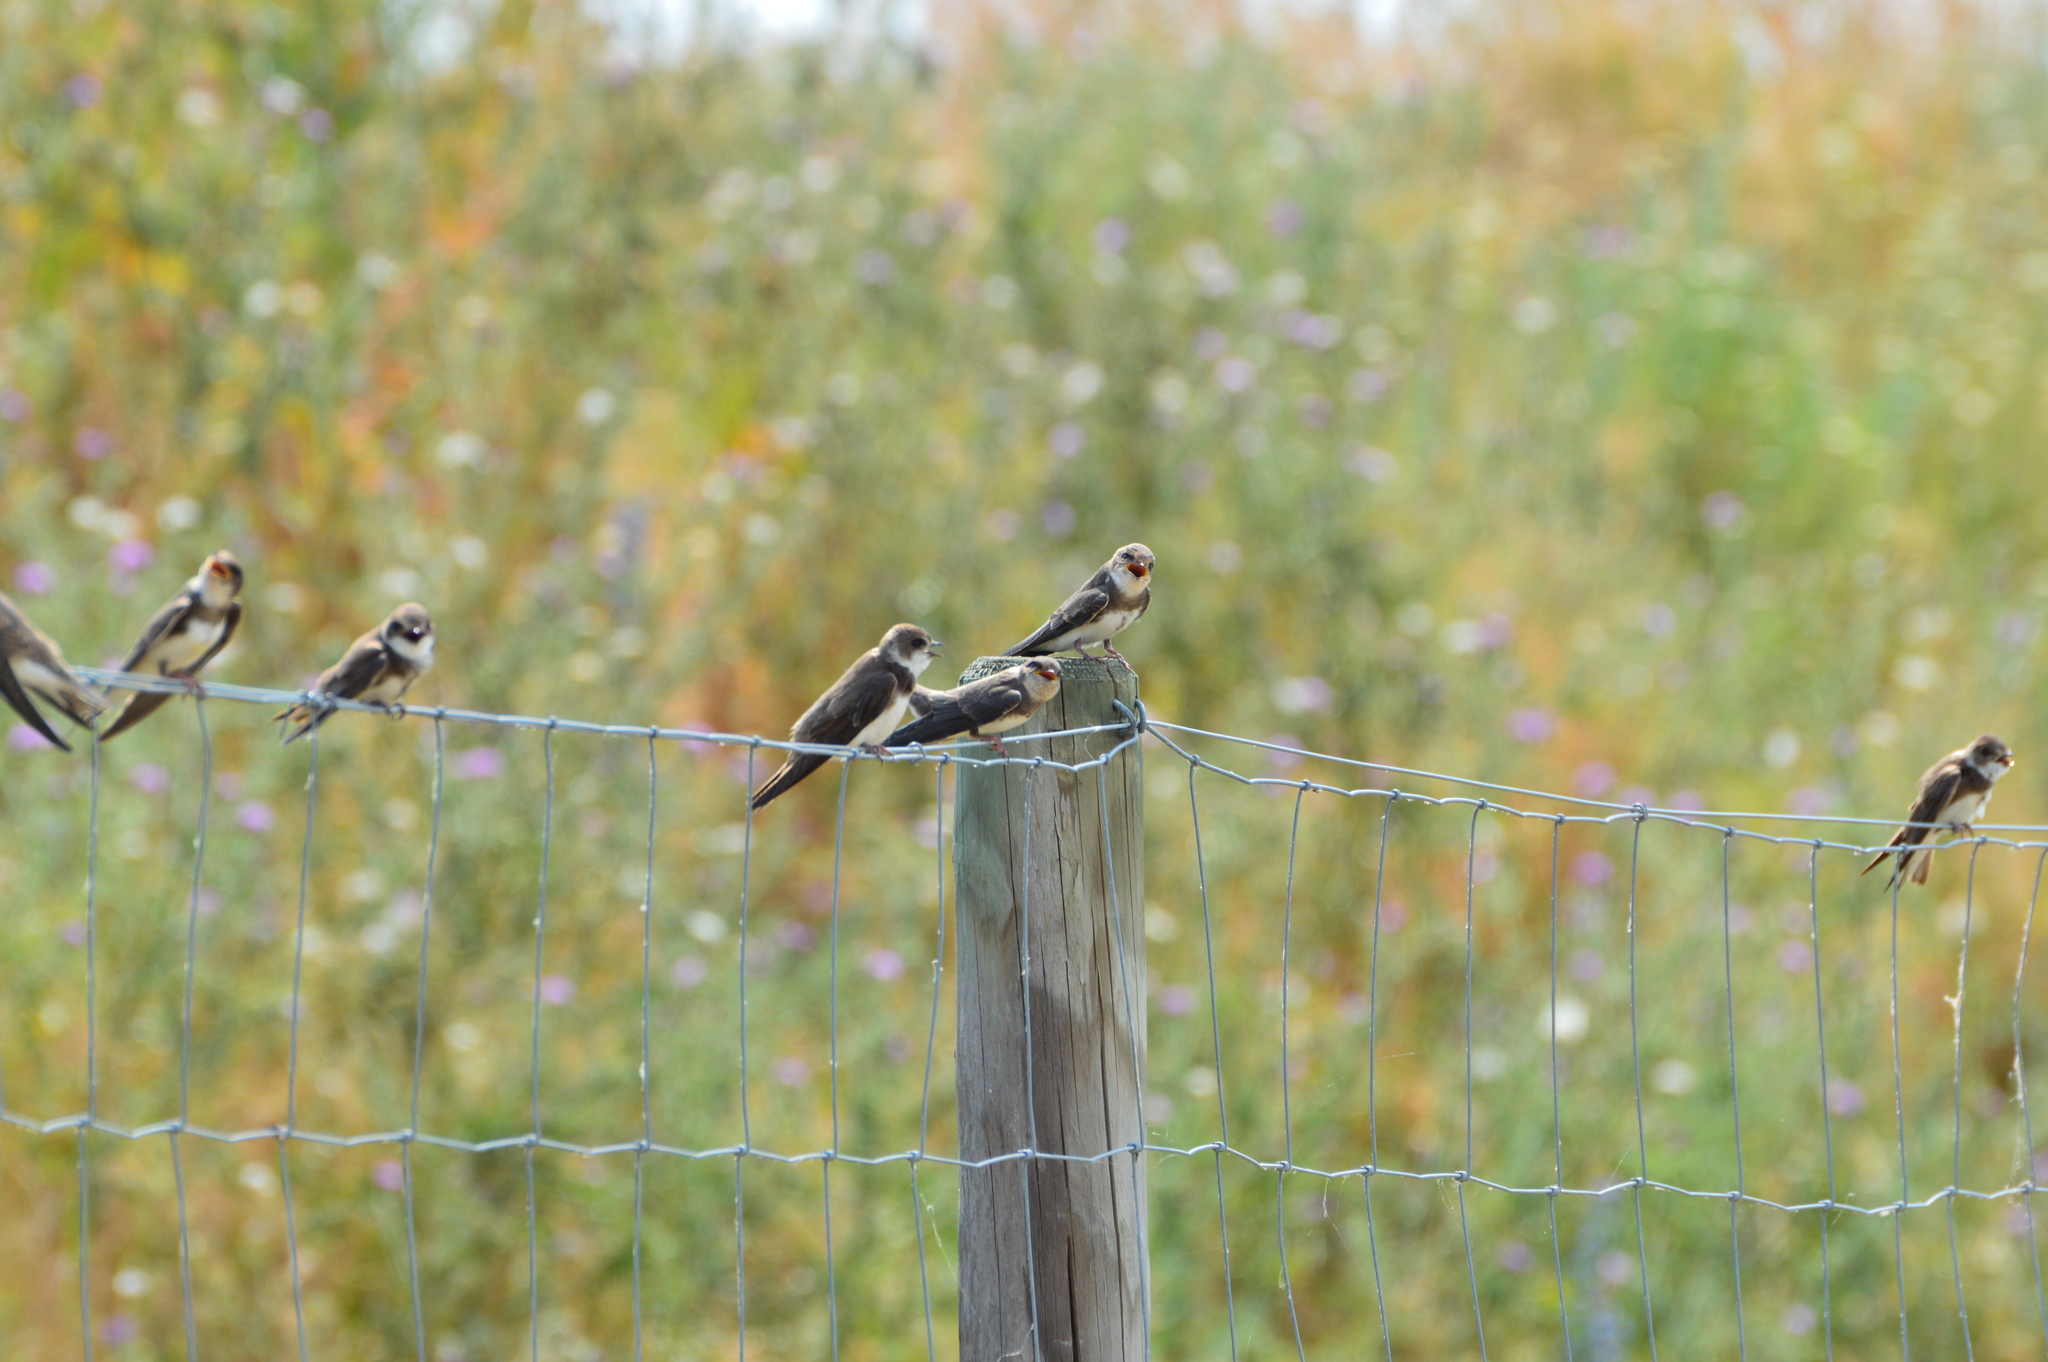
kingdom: Animalia
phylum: Chordata
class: Aves
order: Passeriformes
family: Hirundinidae
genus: Riparia
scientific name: Riparia riparia
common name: Sand martin
